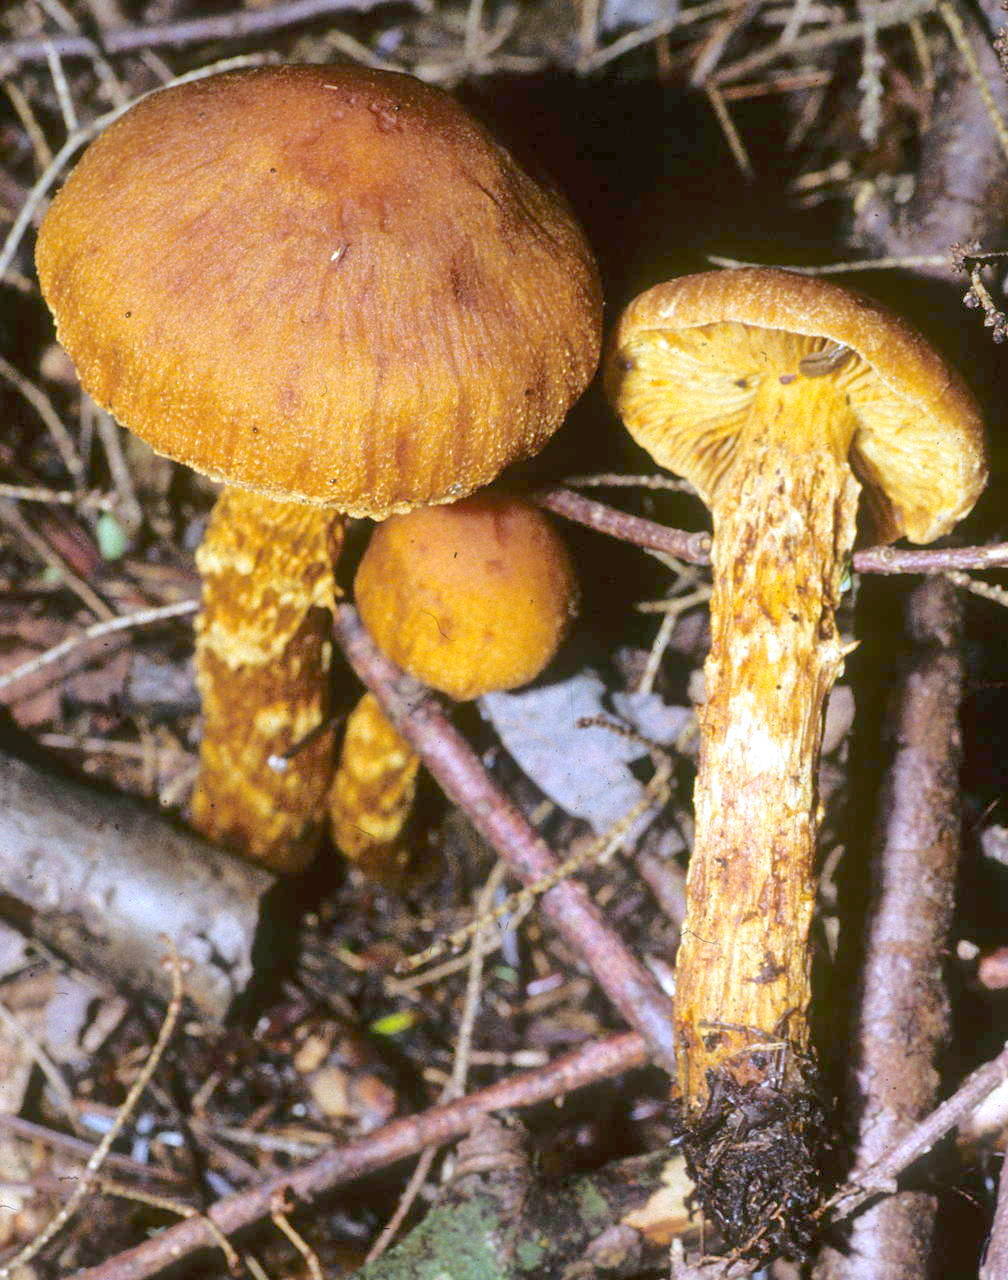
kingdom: Fungi
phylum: Basidiomycota
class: Agaricomycetes
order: Agaricales
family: Cortinariaceae
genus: Aureonarius
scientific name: Aureonarius limonius
